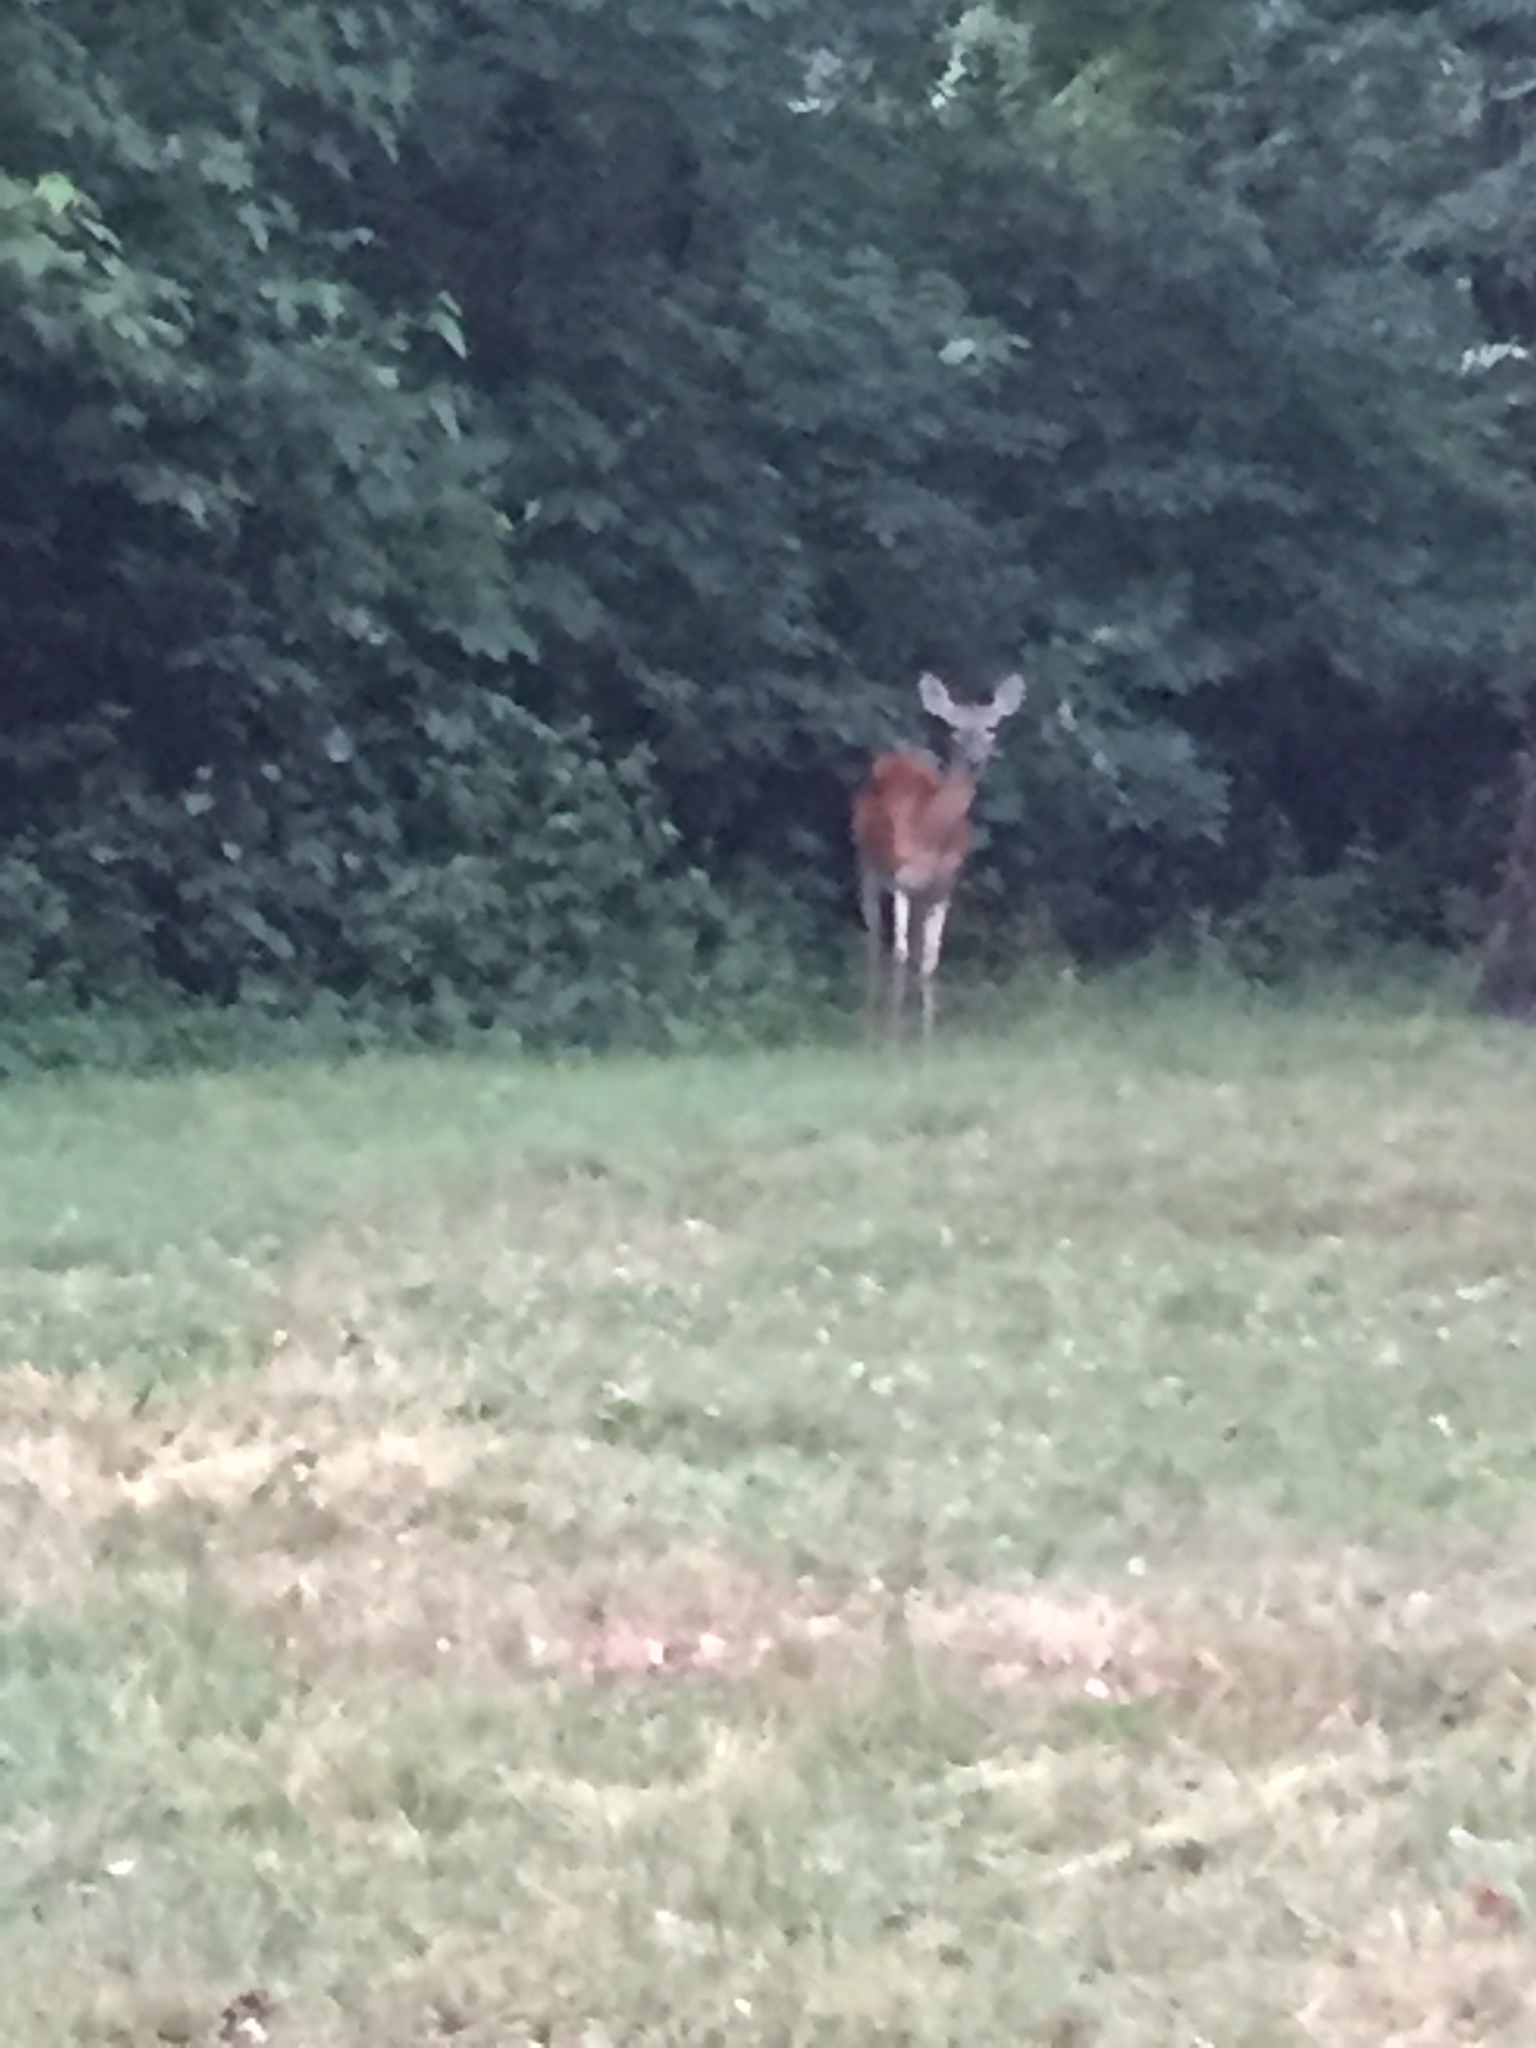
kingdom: Animalia
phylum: Chordata
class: Mammalia
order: Artiodactyla
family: Cervidae
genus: Odocoileus
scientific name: Odocoileus virginianus
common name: White-tailed deer
